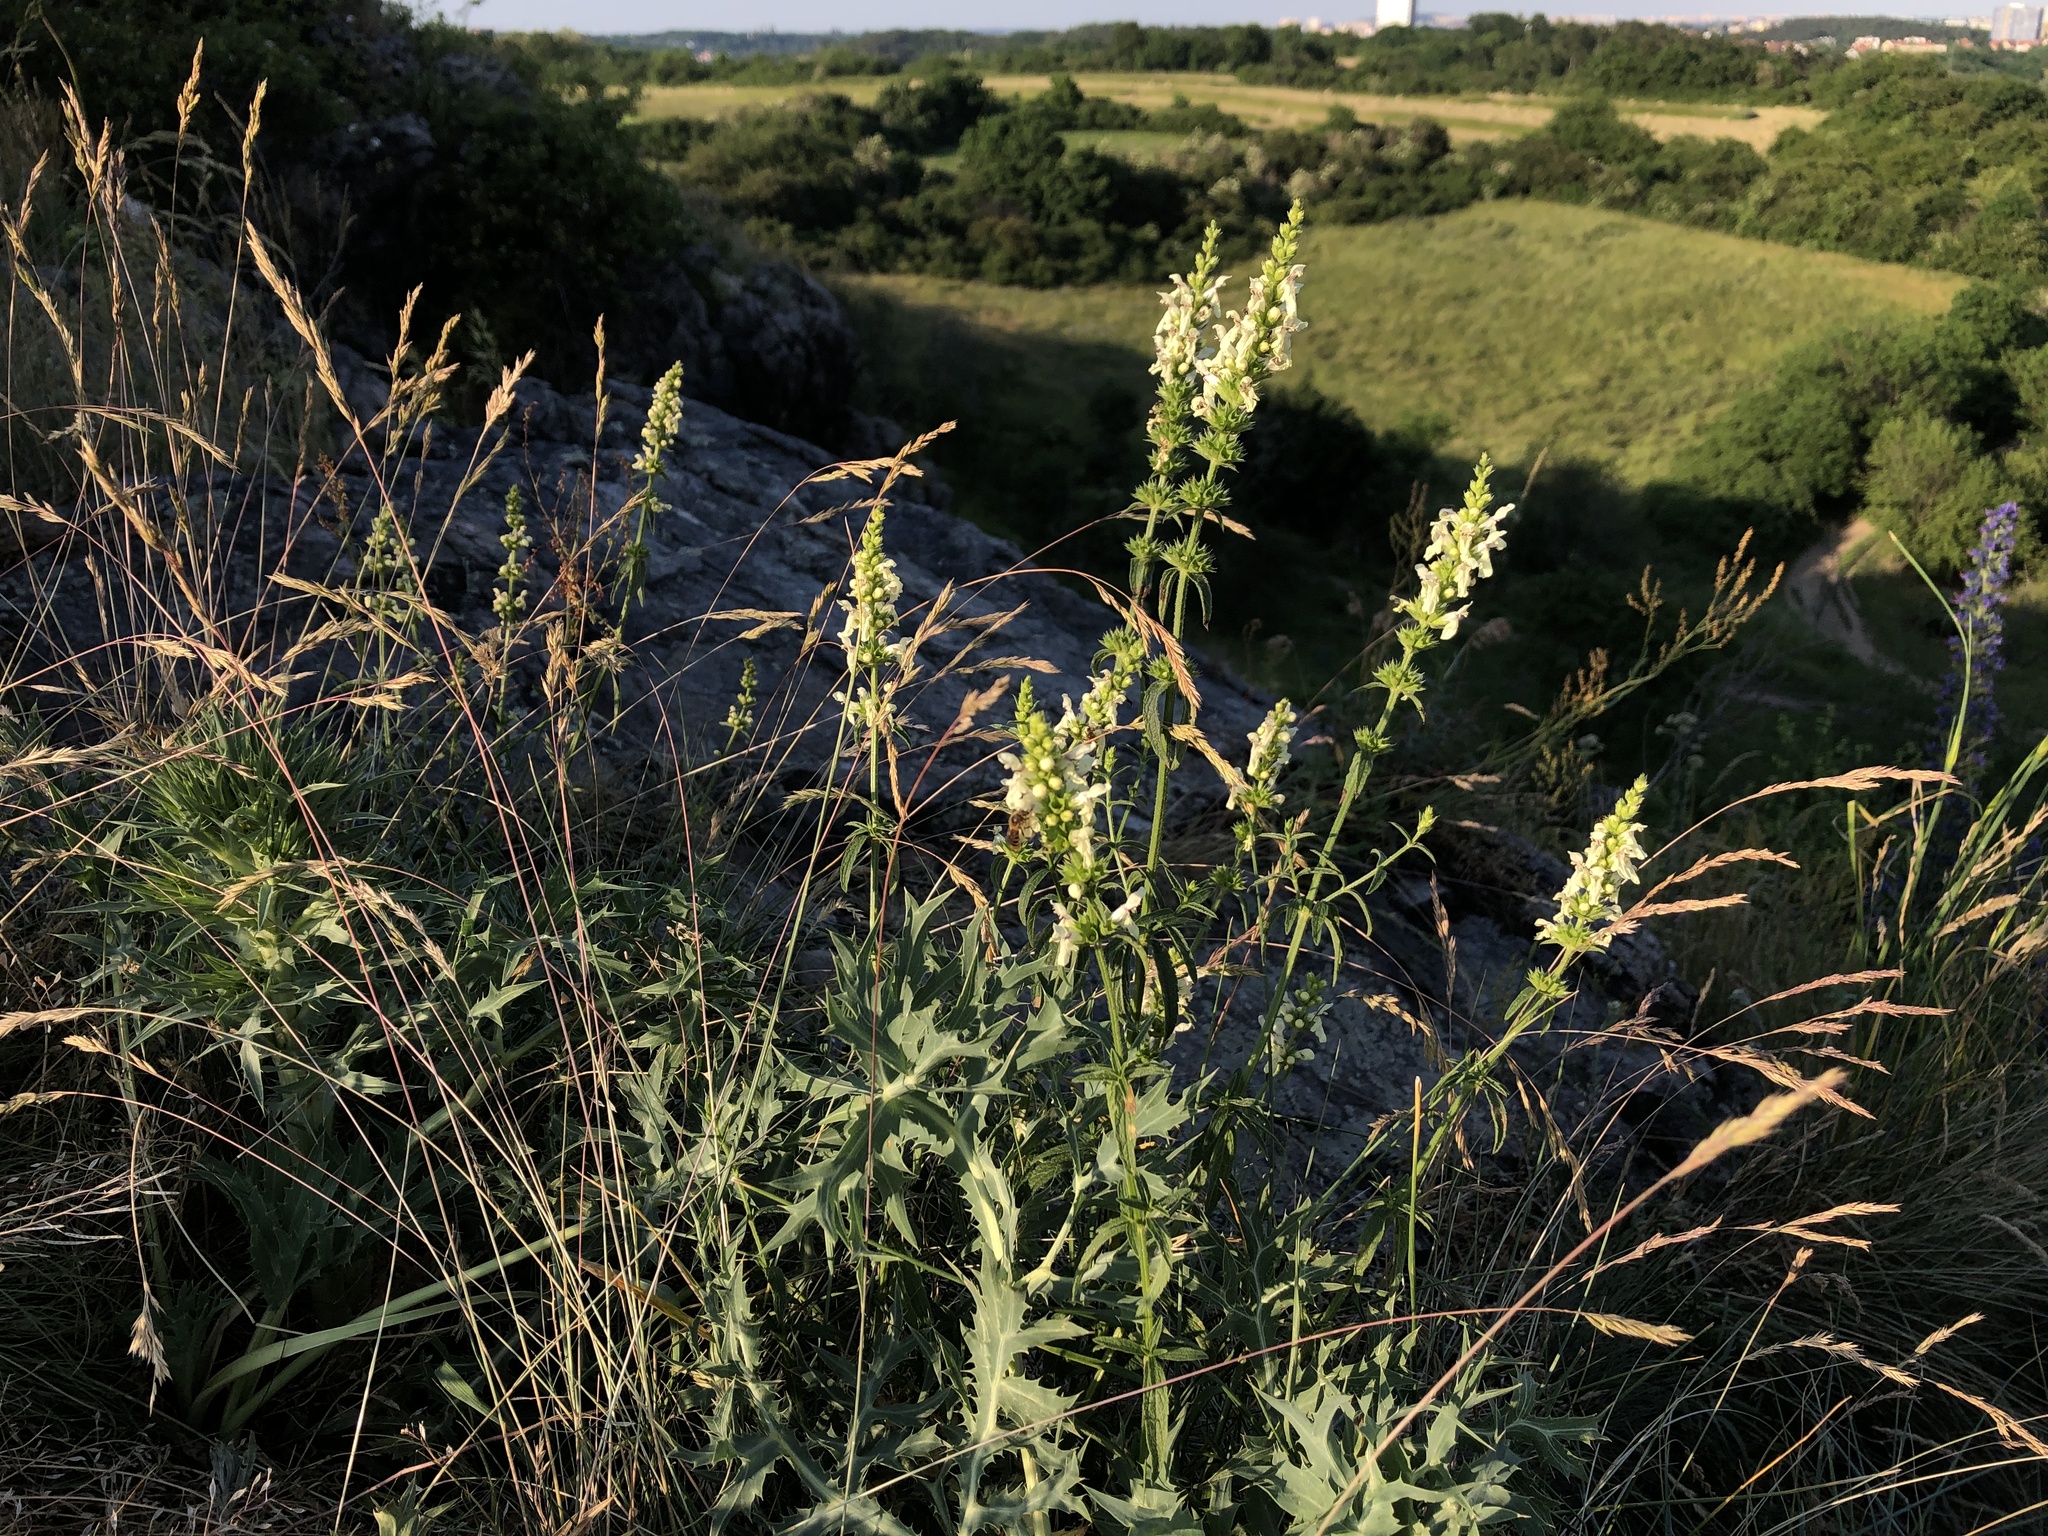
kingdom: Plantae
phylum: Tracheophyta
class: Magnoliopsida
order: Lamiales
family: Lamiaceae
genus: Stachys
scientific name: Stachys recta
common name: Perennial yellow-woundwort
